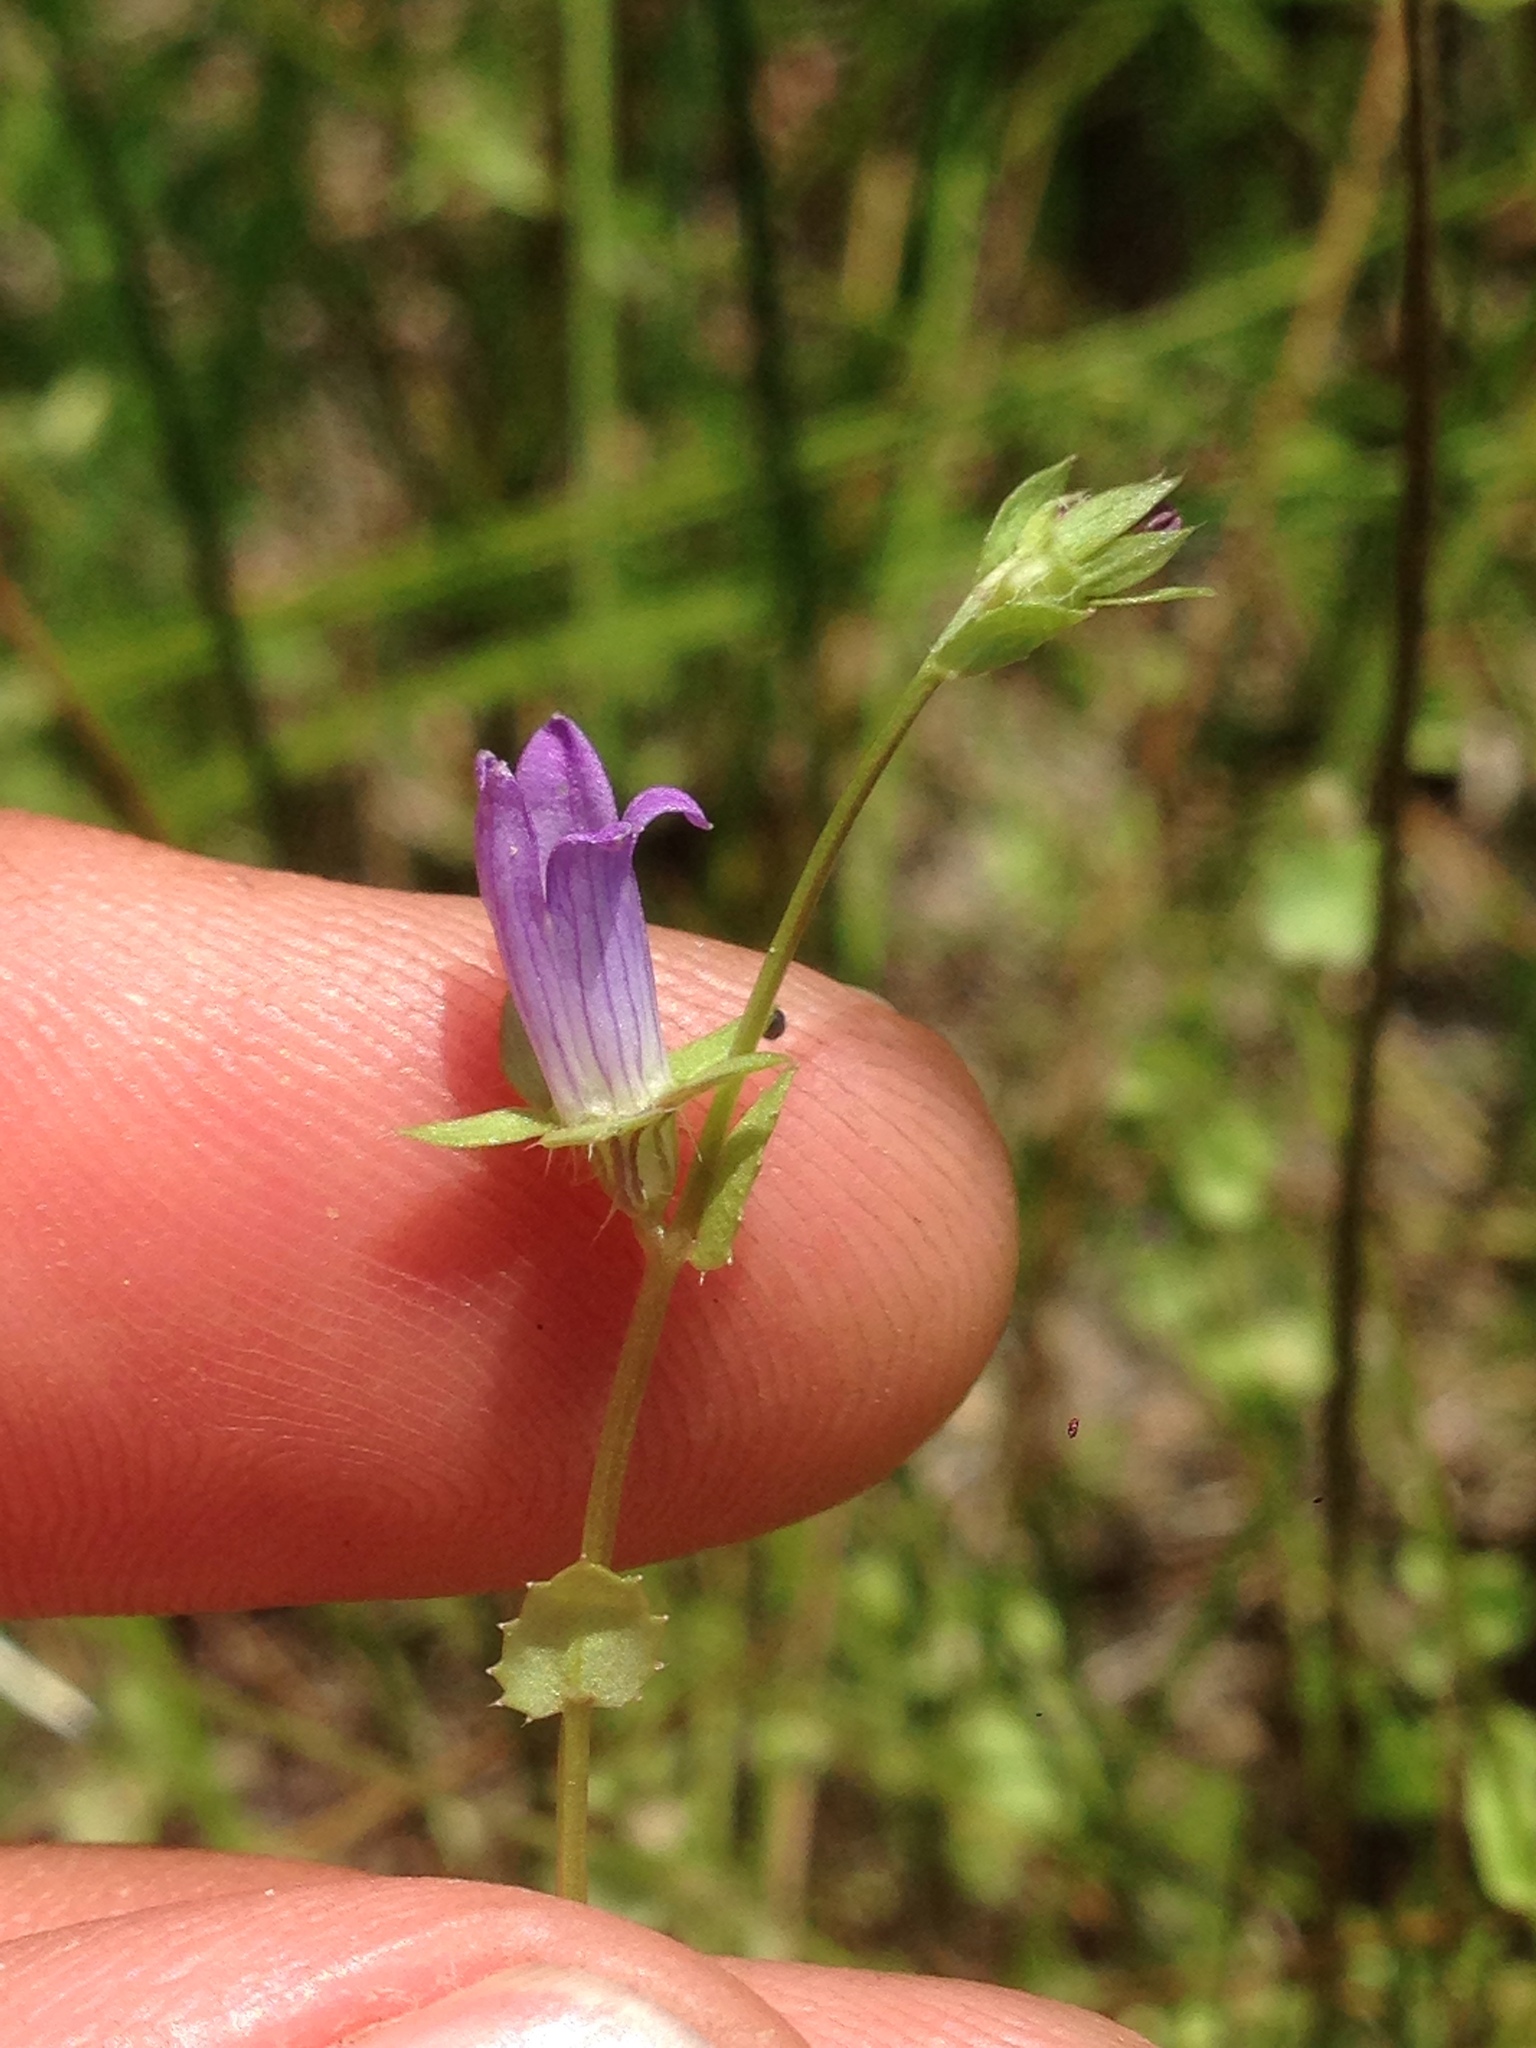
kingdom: Plantae
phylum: Tracheophyta
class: Magnoliopsida
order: Asterales
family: Campanulaceae
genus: Heterocodon
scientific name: Heterocodon rariflorum
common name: Rareflower heterocodon
